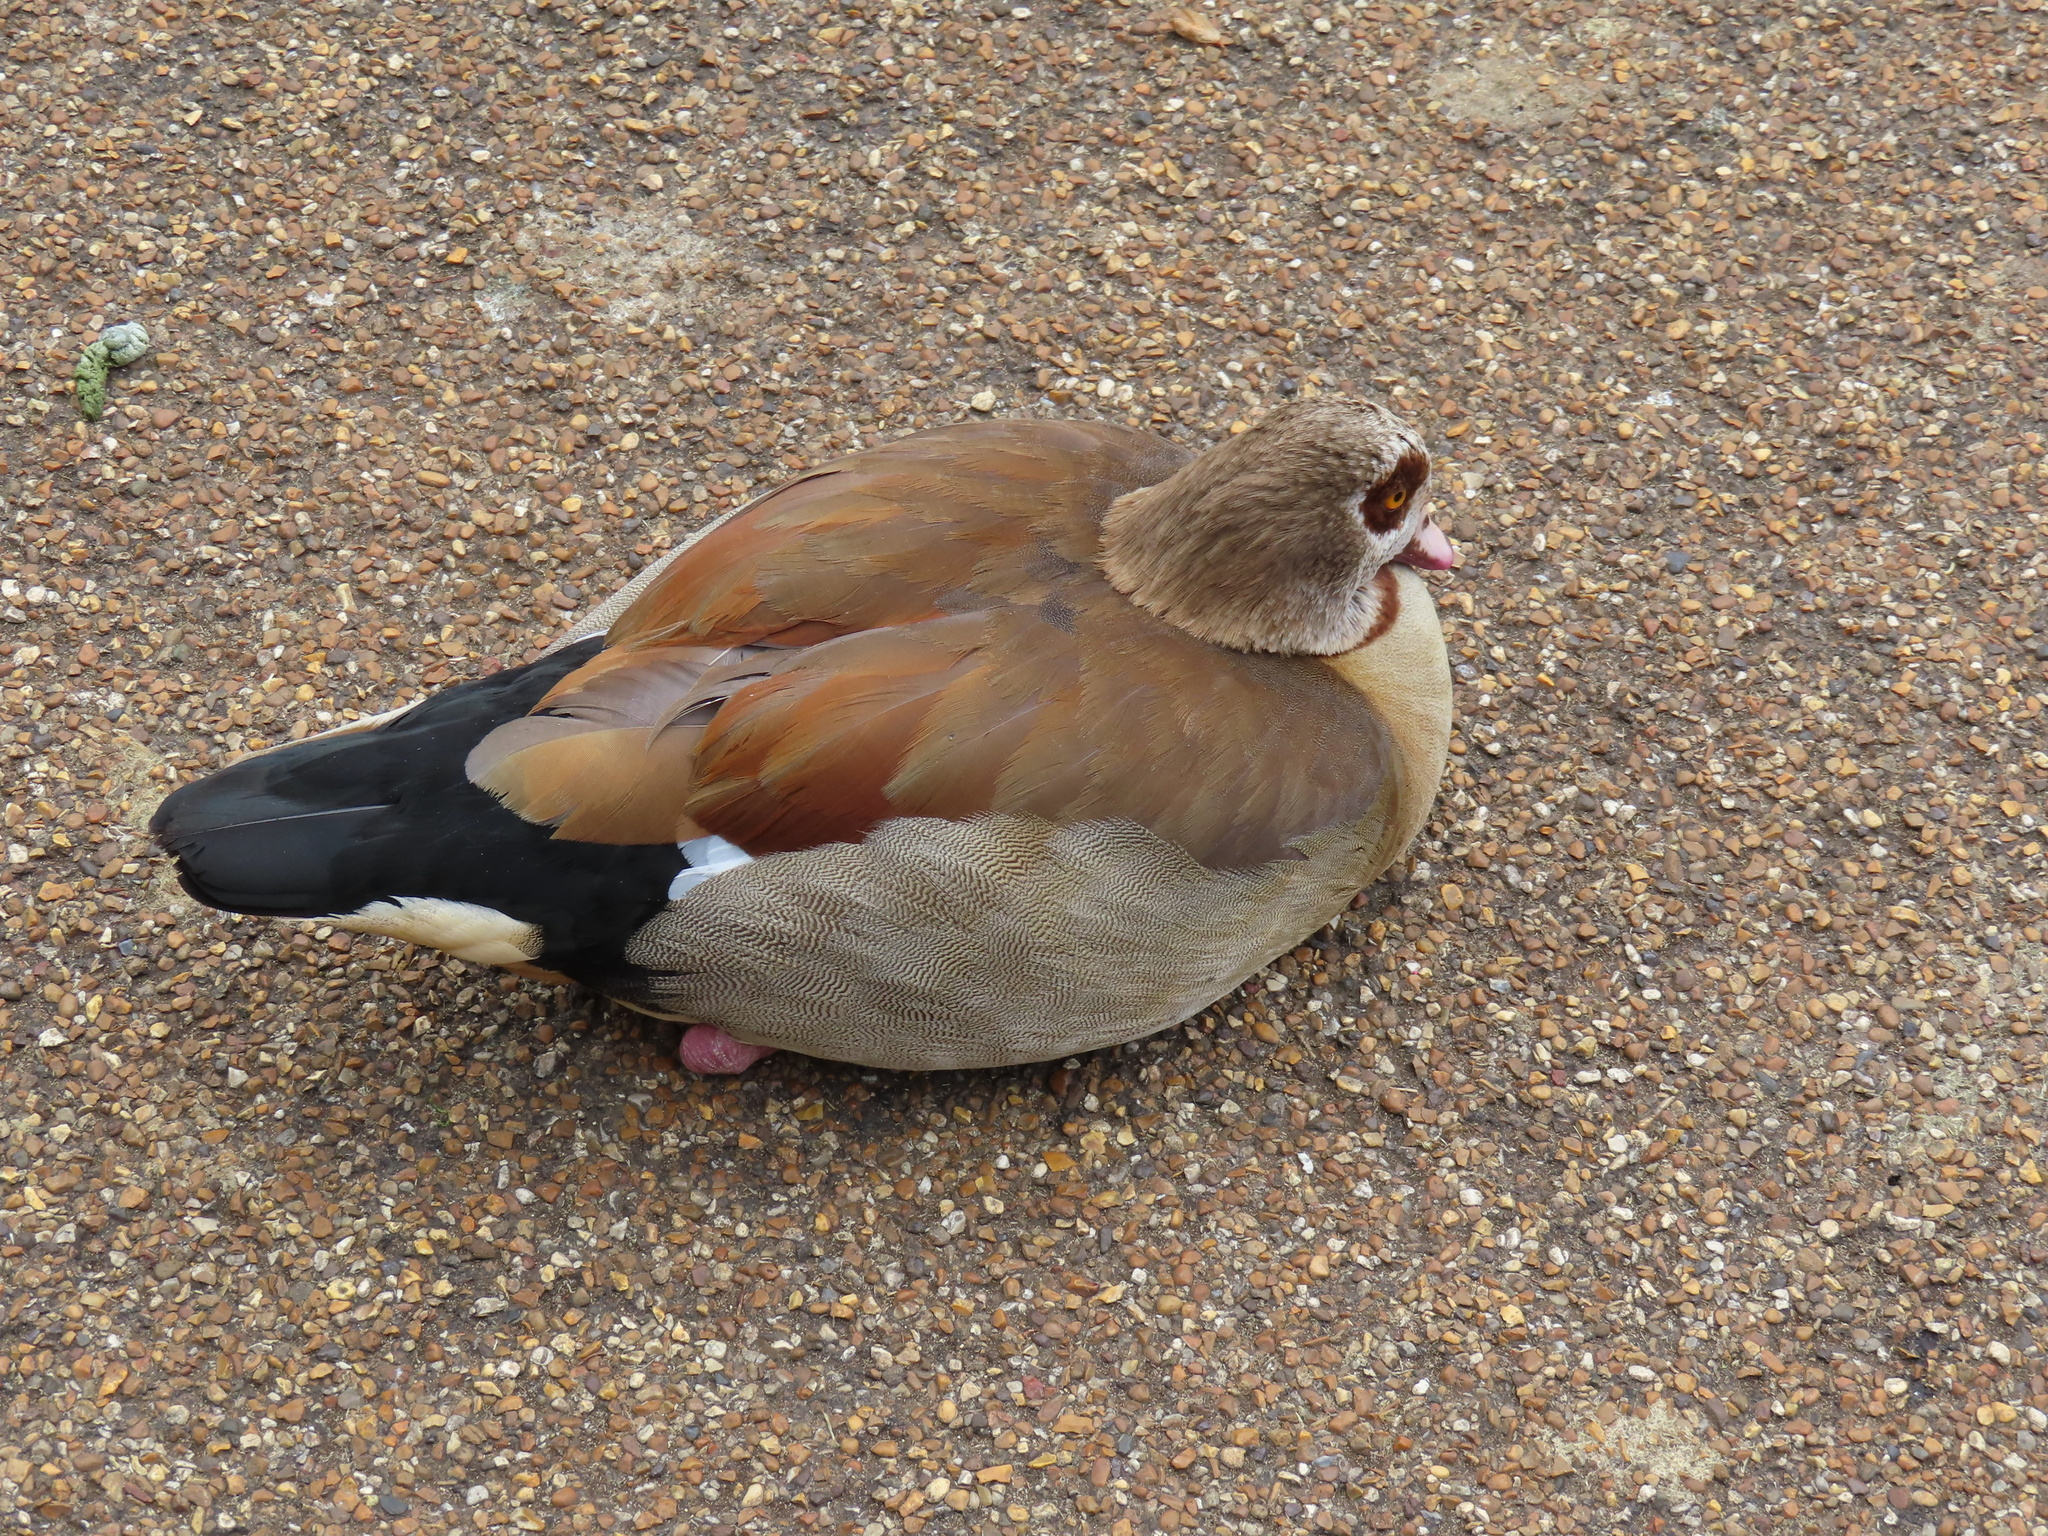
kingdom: Animalia
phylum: Chordata
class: Aves
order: Anseriformes
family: Anatidae
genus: Alopochen
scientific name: Alopochen aegyptiaca
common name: Egyptian goose
